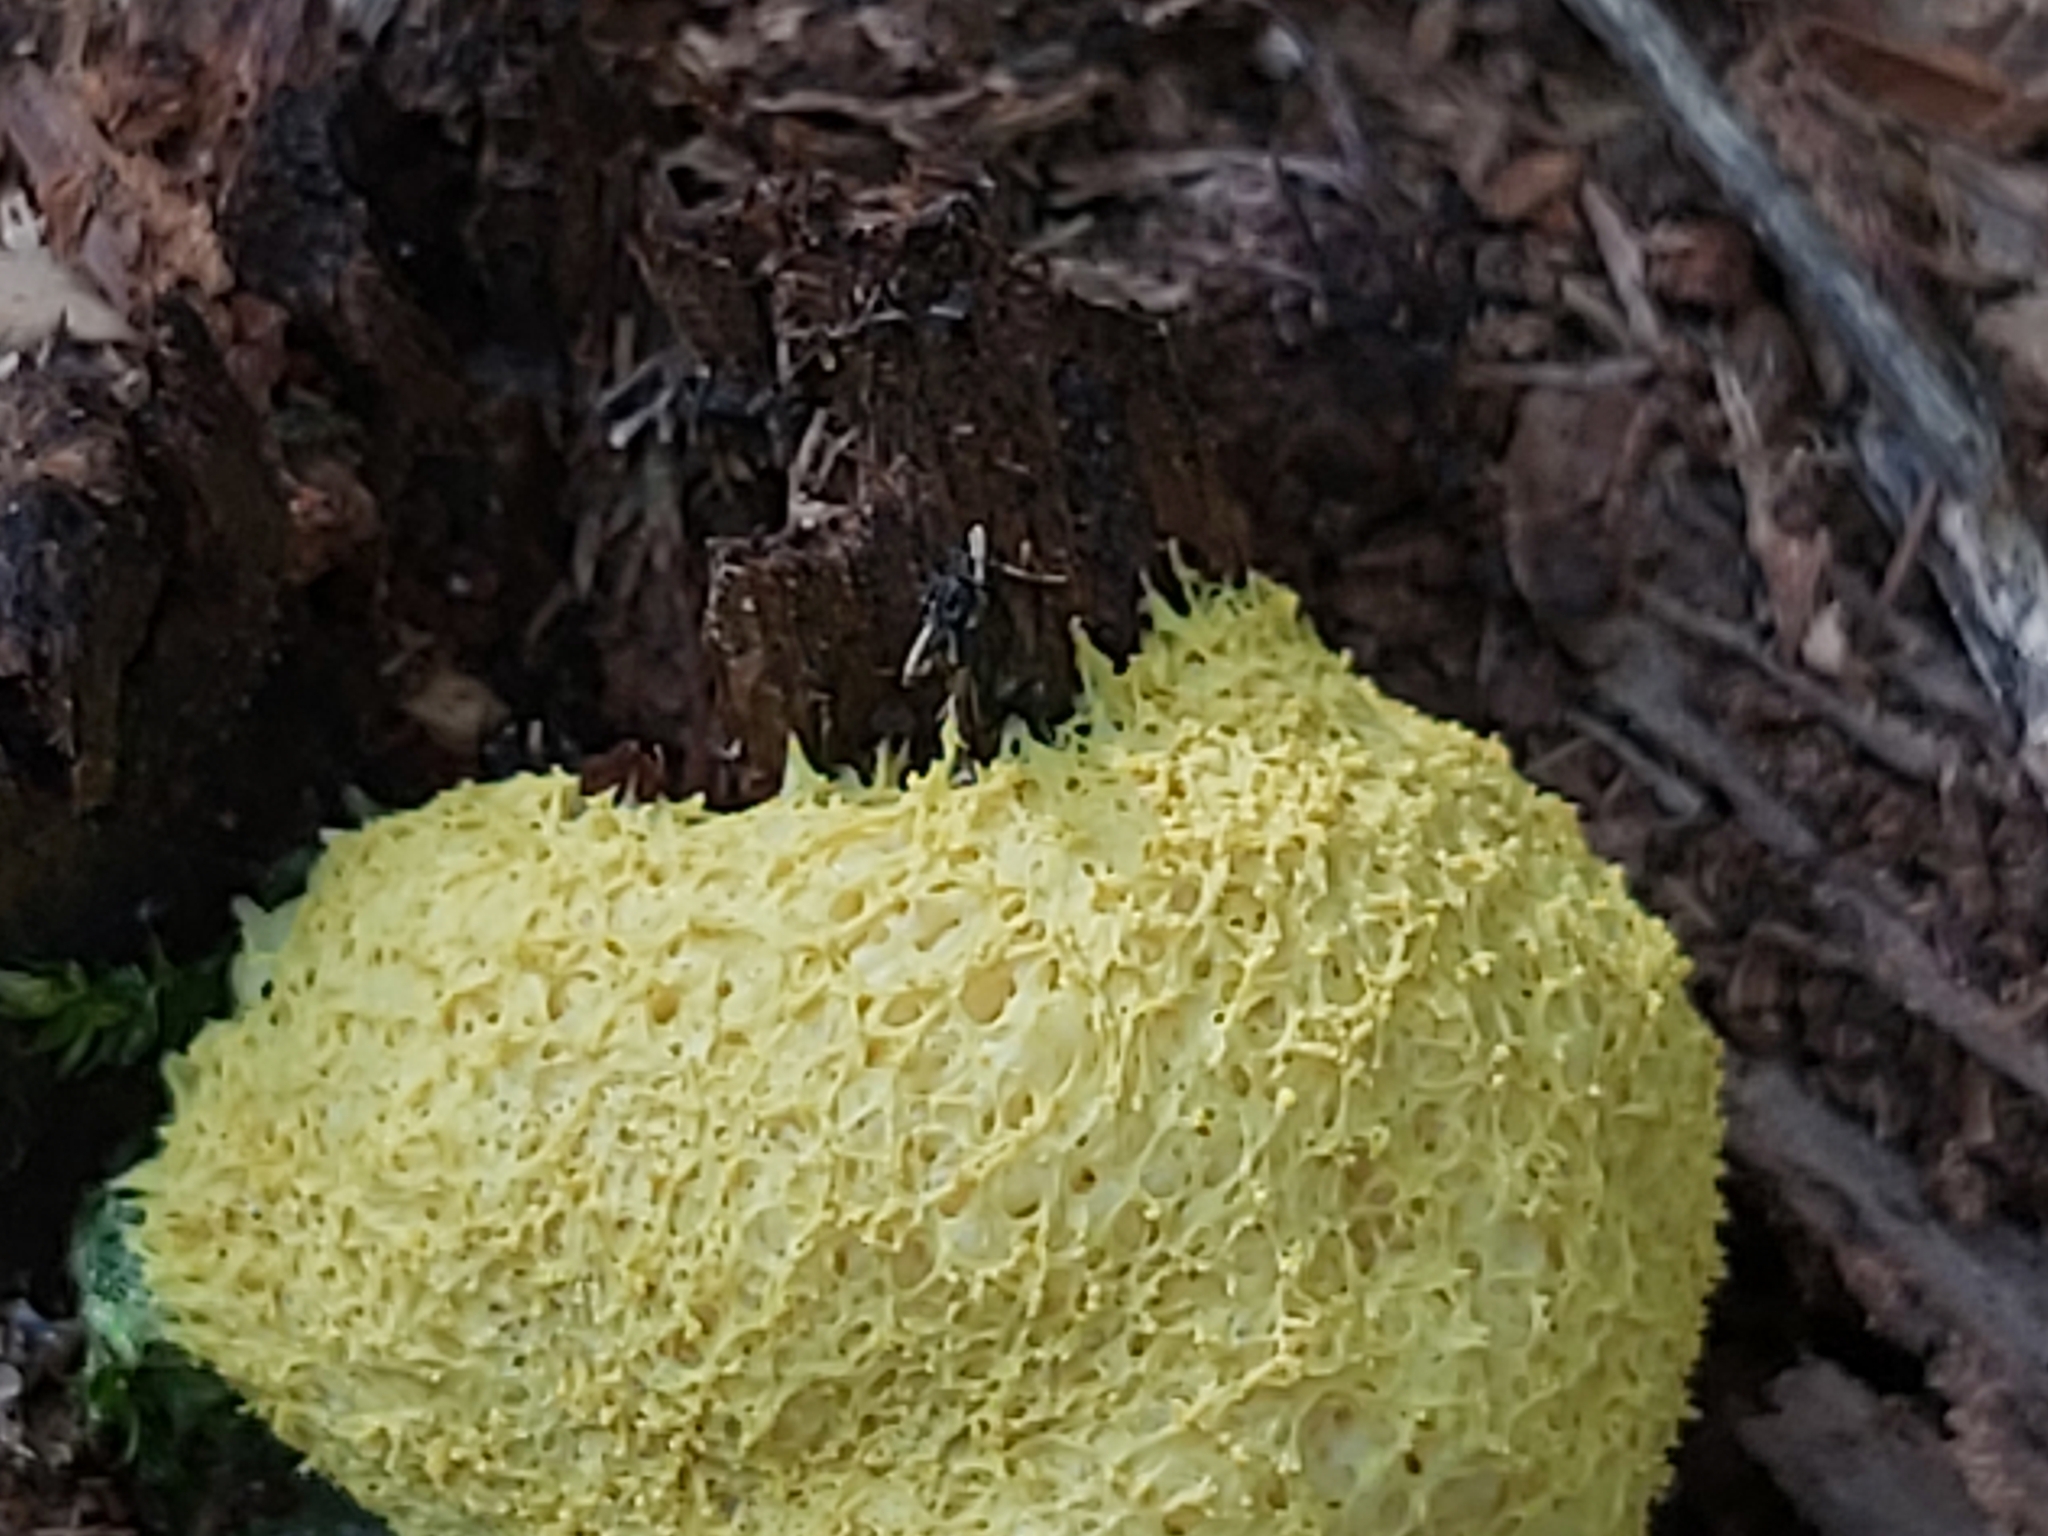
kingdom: Protozoa
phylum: Mycetozoa
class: Myxomycetes
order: Physarales
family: Physaraceae
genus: Fuligo
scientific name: Fuligo septica
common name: Dog vomit slime mold
